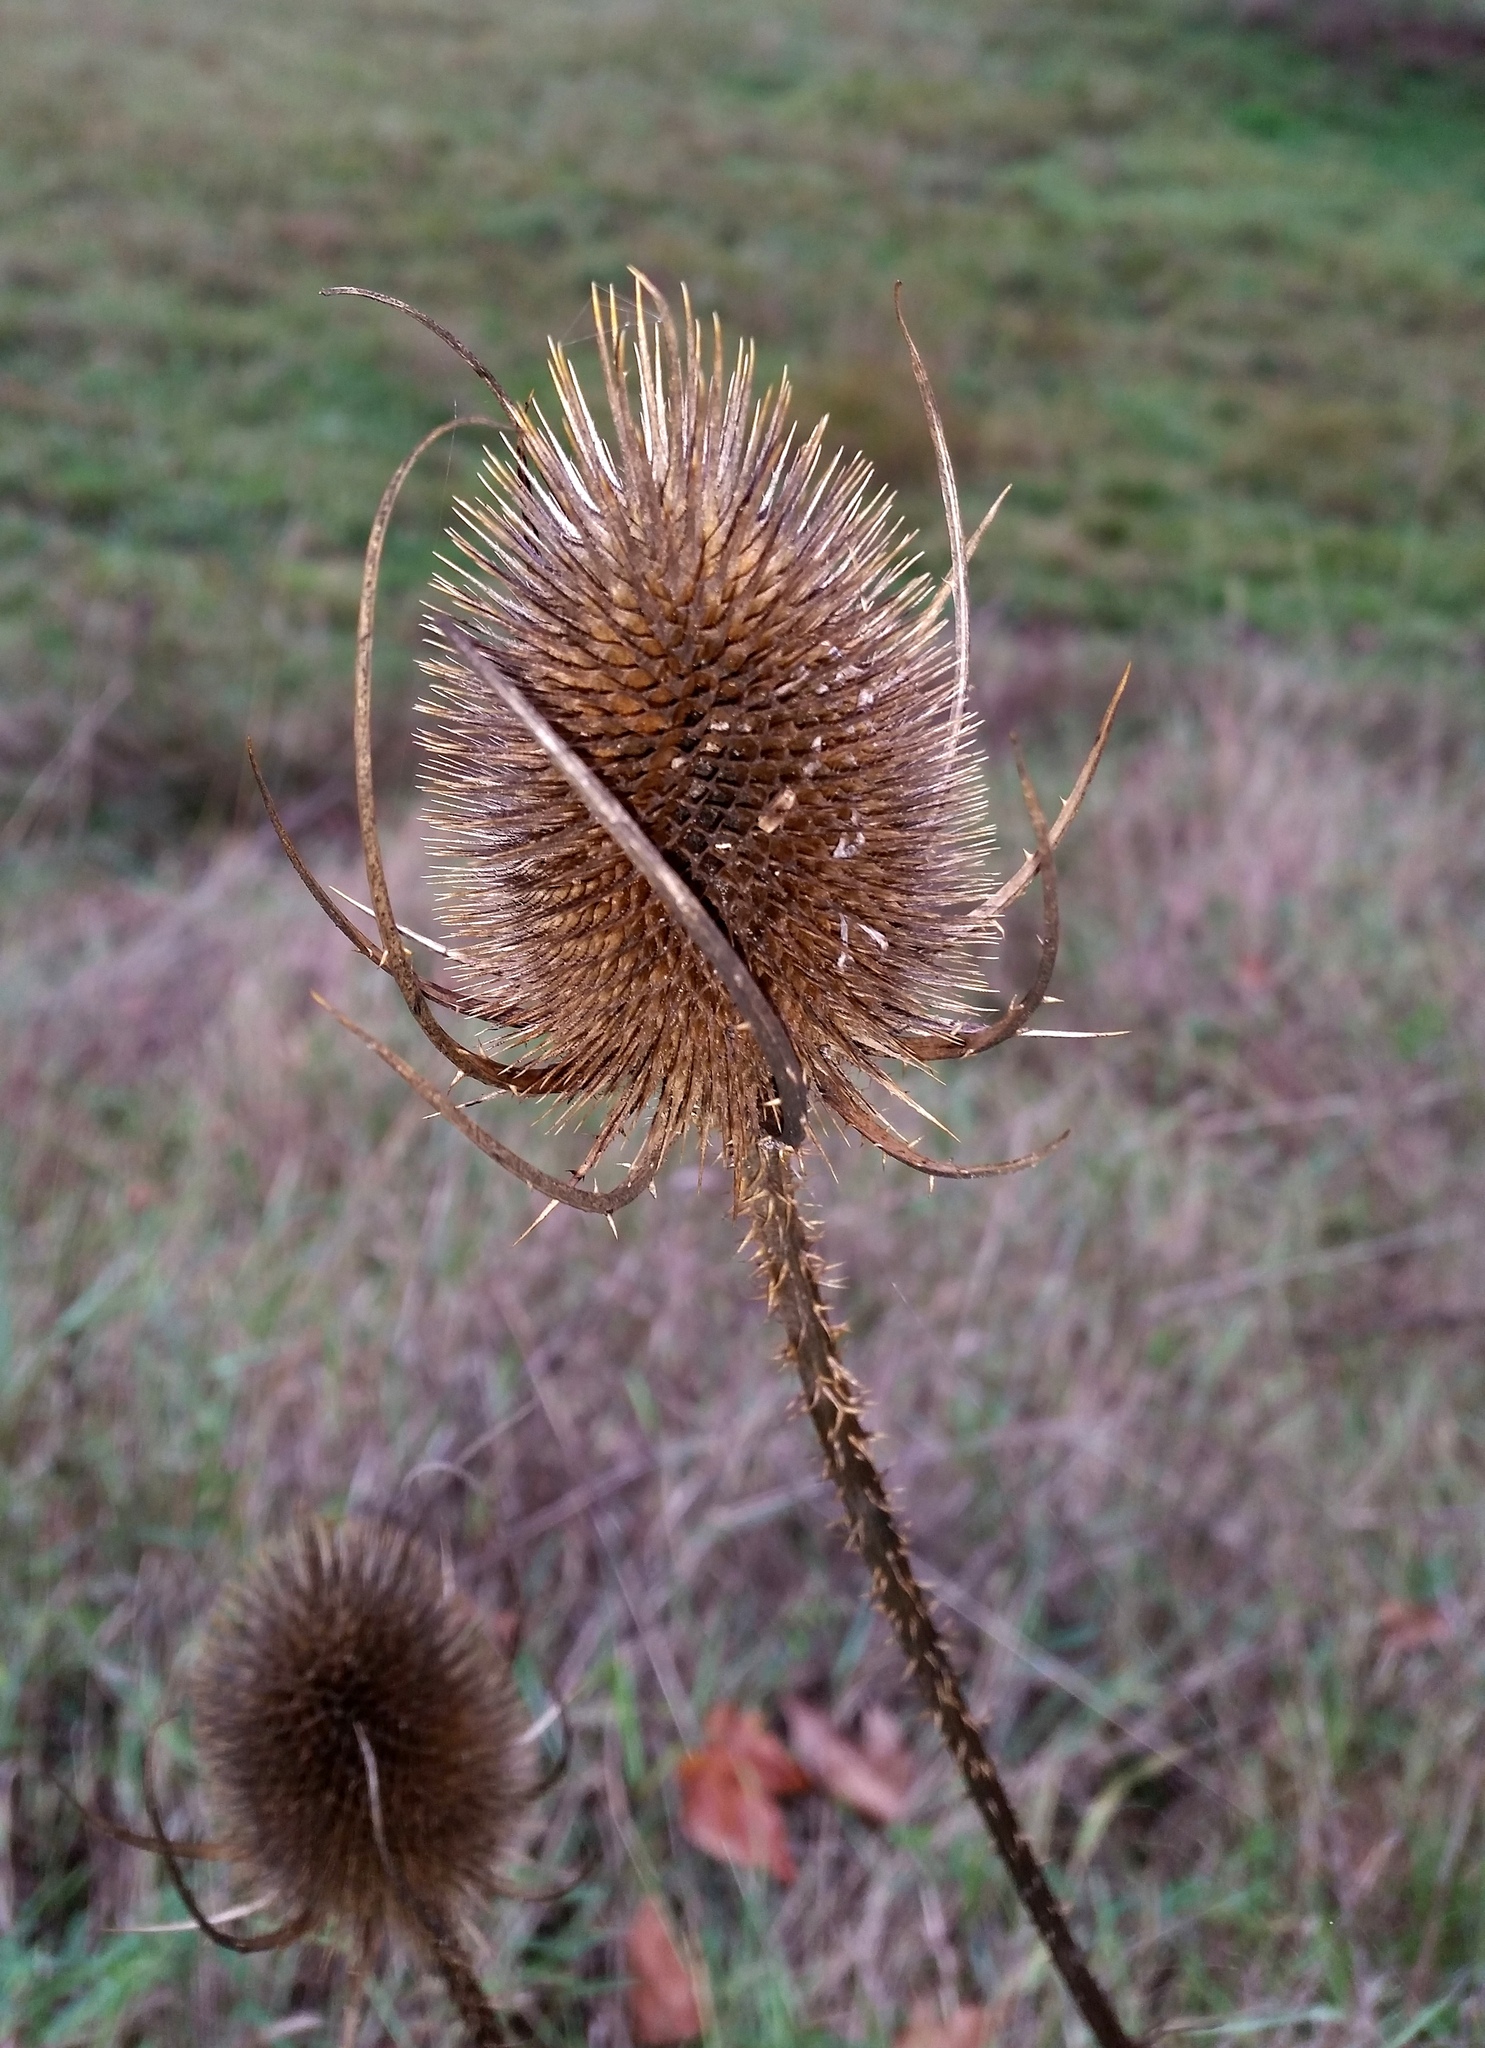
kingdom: Plantae
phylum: Tracheophyta
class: Magnoliopsida
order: Dipsacales
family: Caprifoliaceae
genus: Dipsacus
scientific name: Dipsacus fullonum
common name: Teasel
